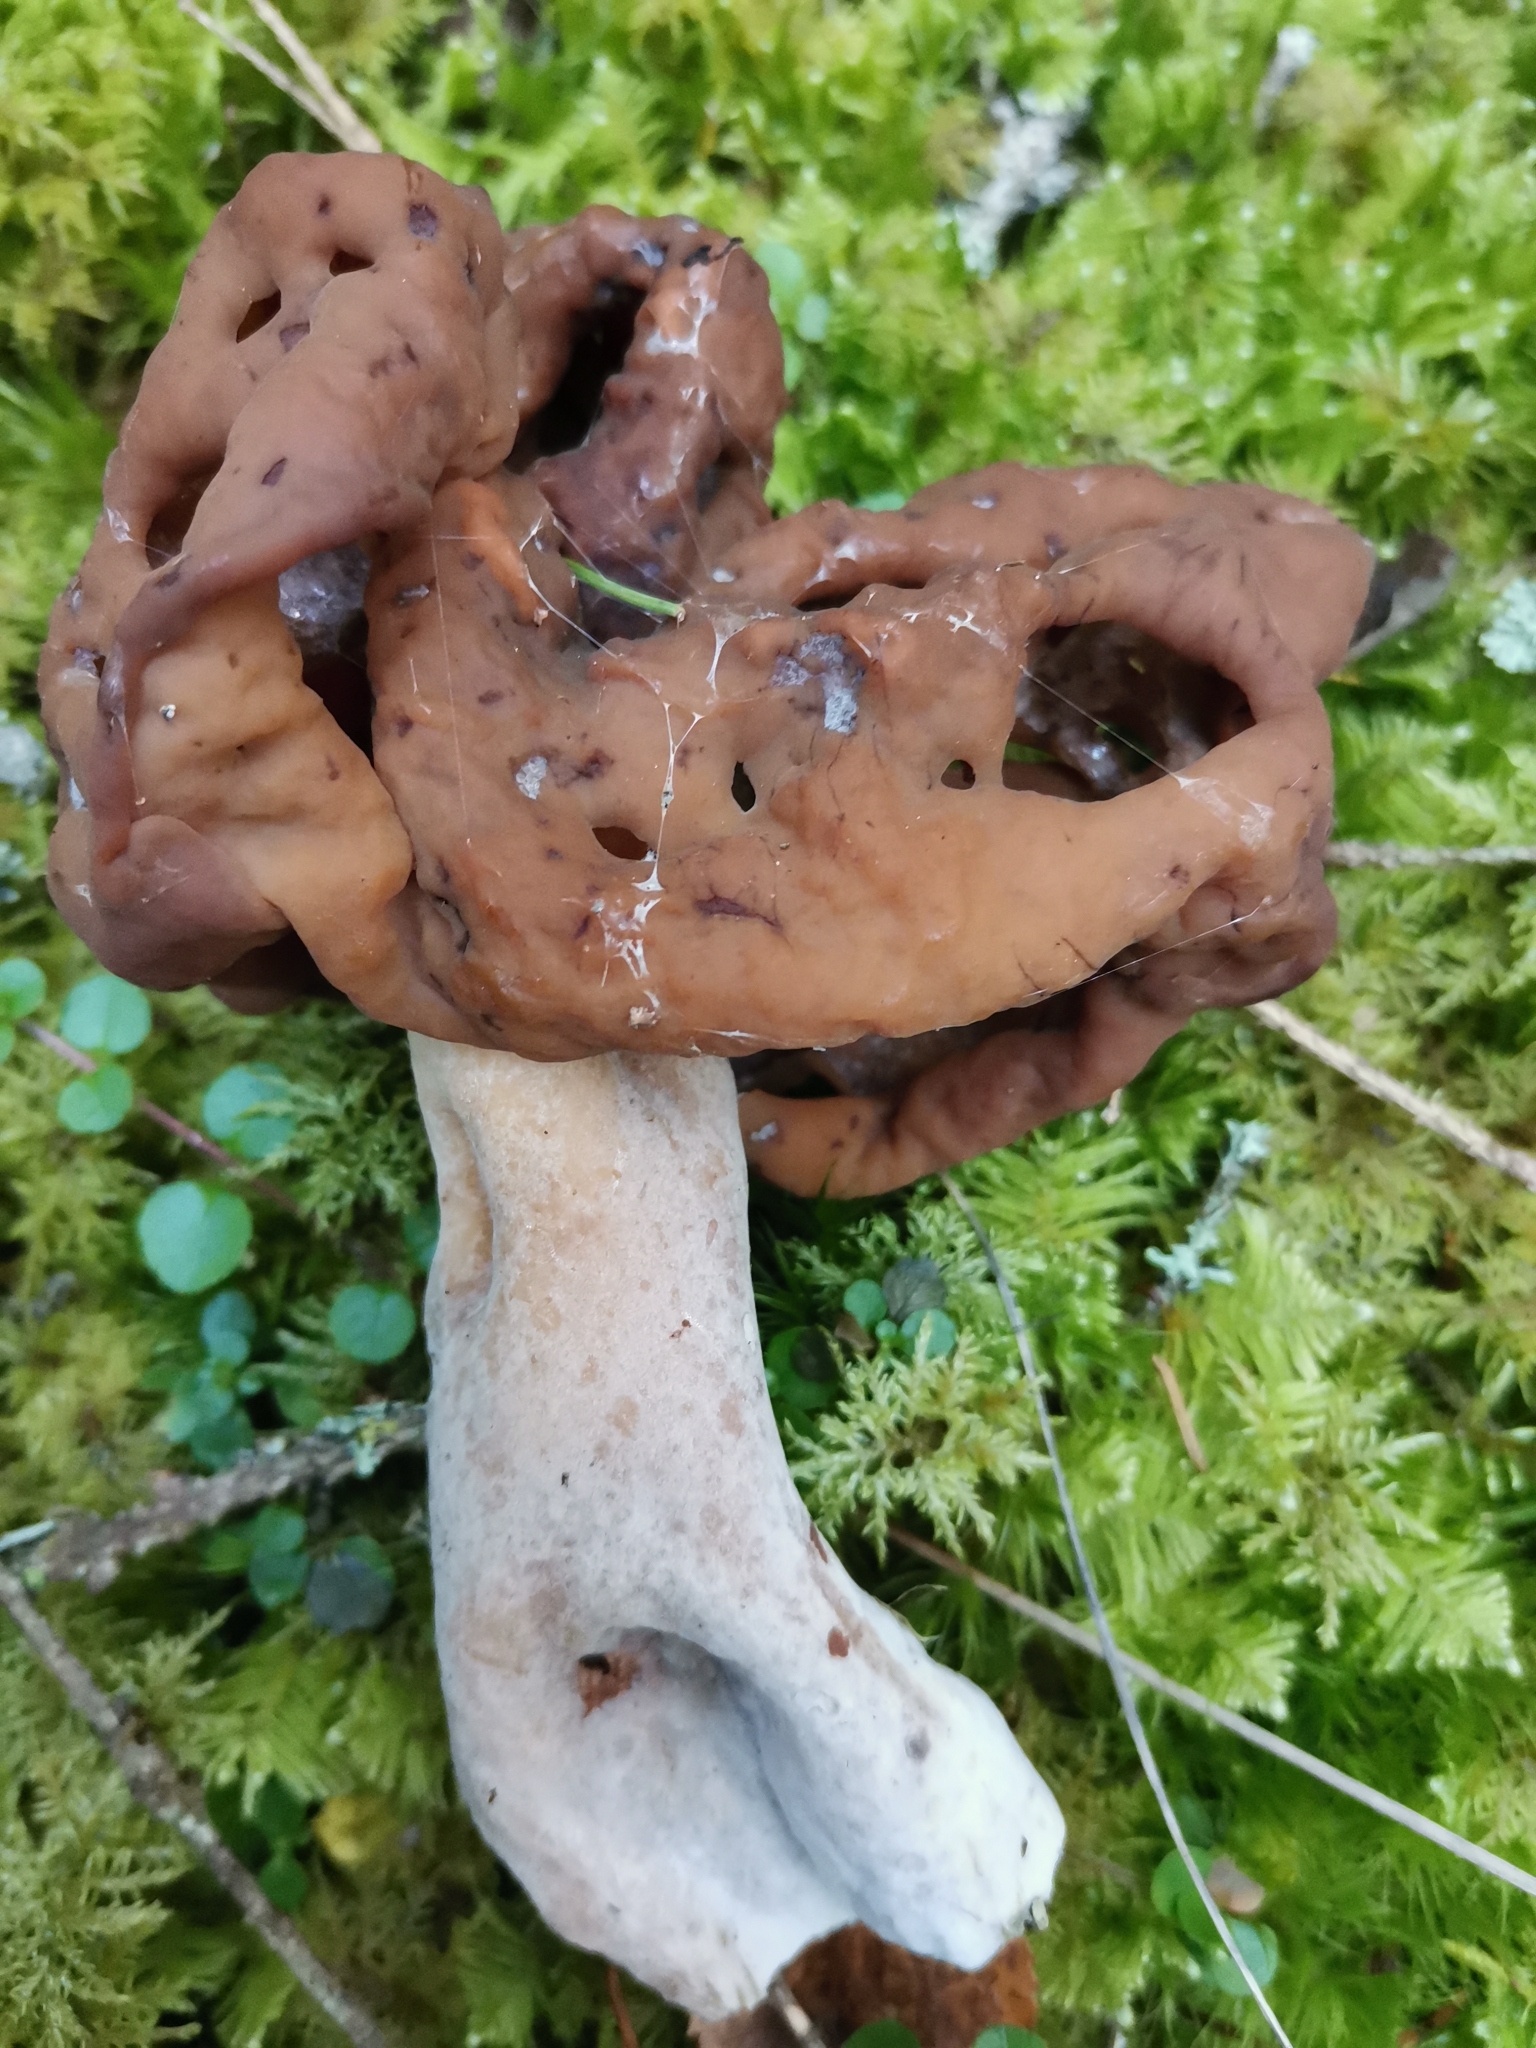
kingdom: Fungi
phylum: Ascomycota
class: Pezizomycetes
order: Pezizales
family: Discinaceae
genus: Gyromitra
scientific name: Gyromitra infula
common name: Pouched false morel
